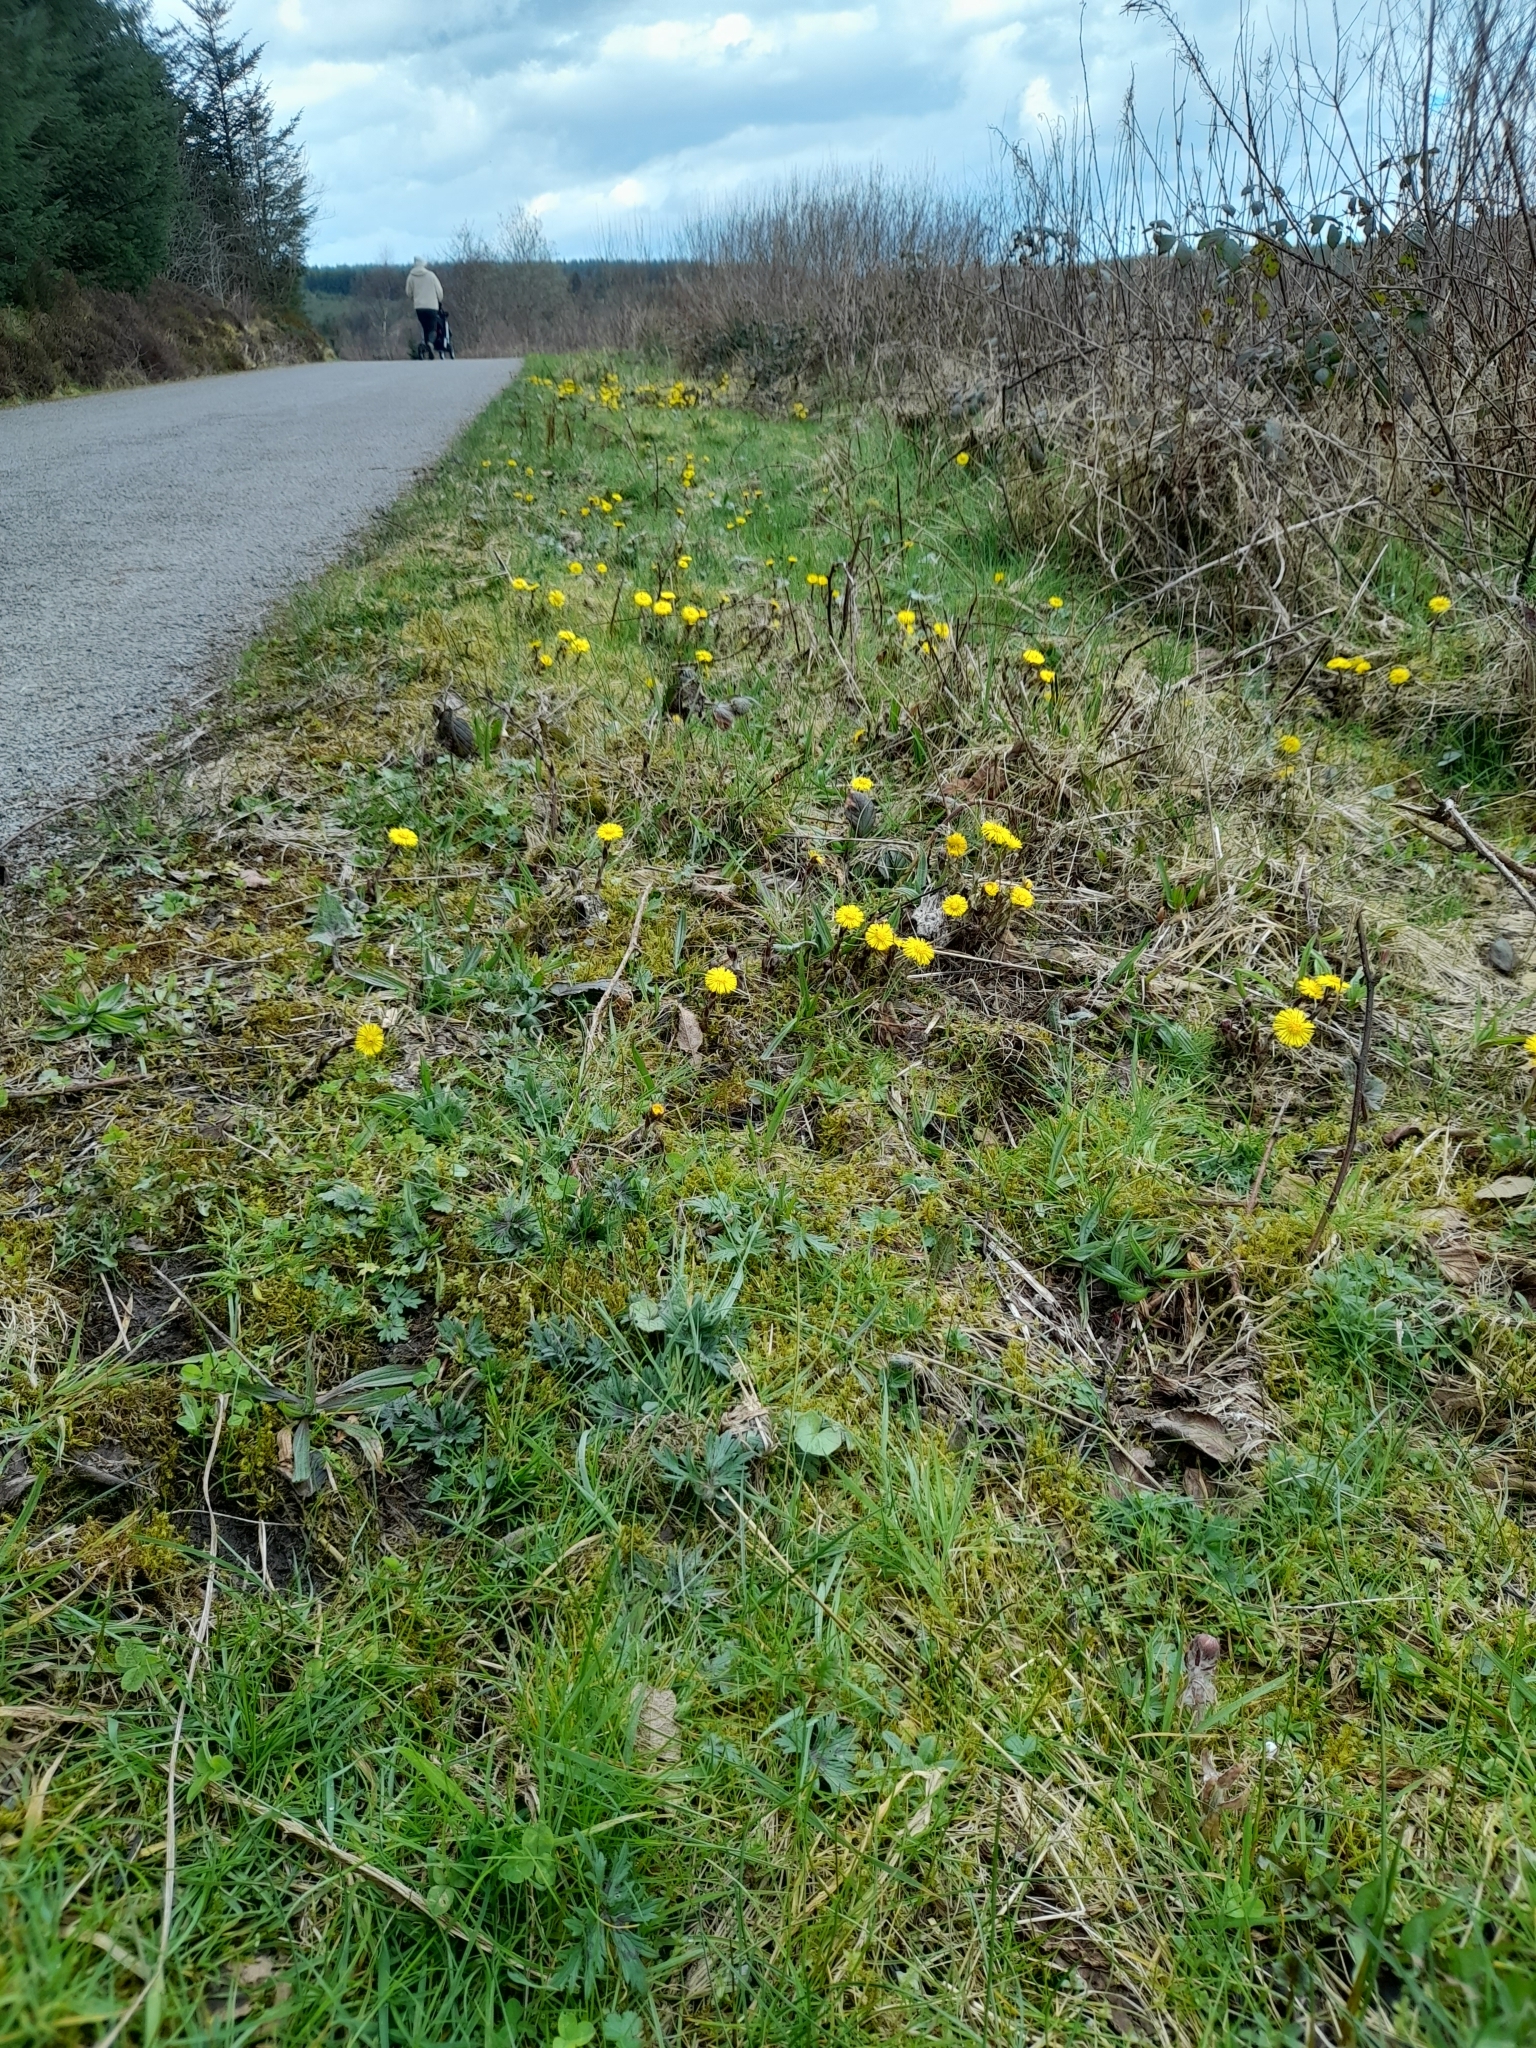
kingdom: Plantae
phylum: Tracheophyta
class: Magnoliopsida
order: Asterales
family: Asteraceae
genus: Tussilago
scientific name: Tussilago farfara
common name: Coltsfoot
